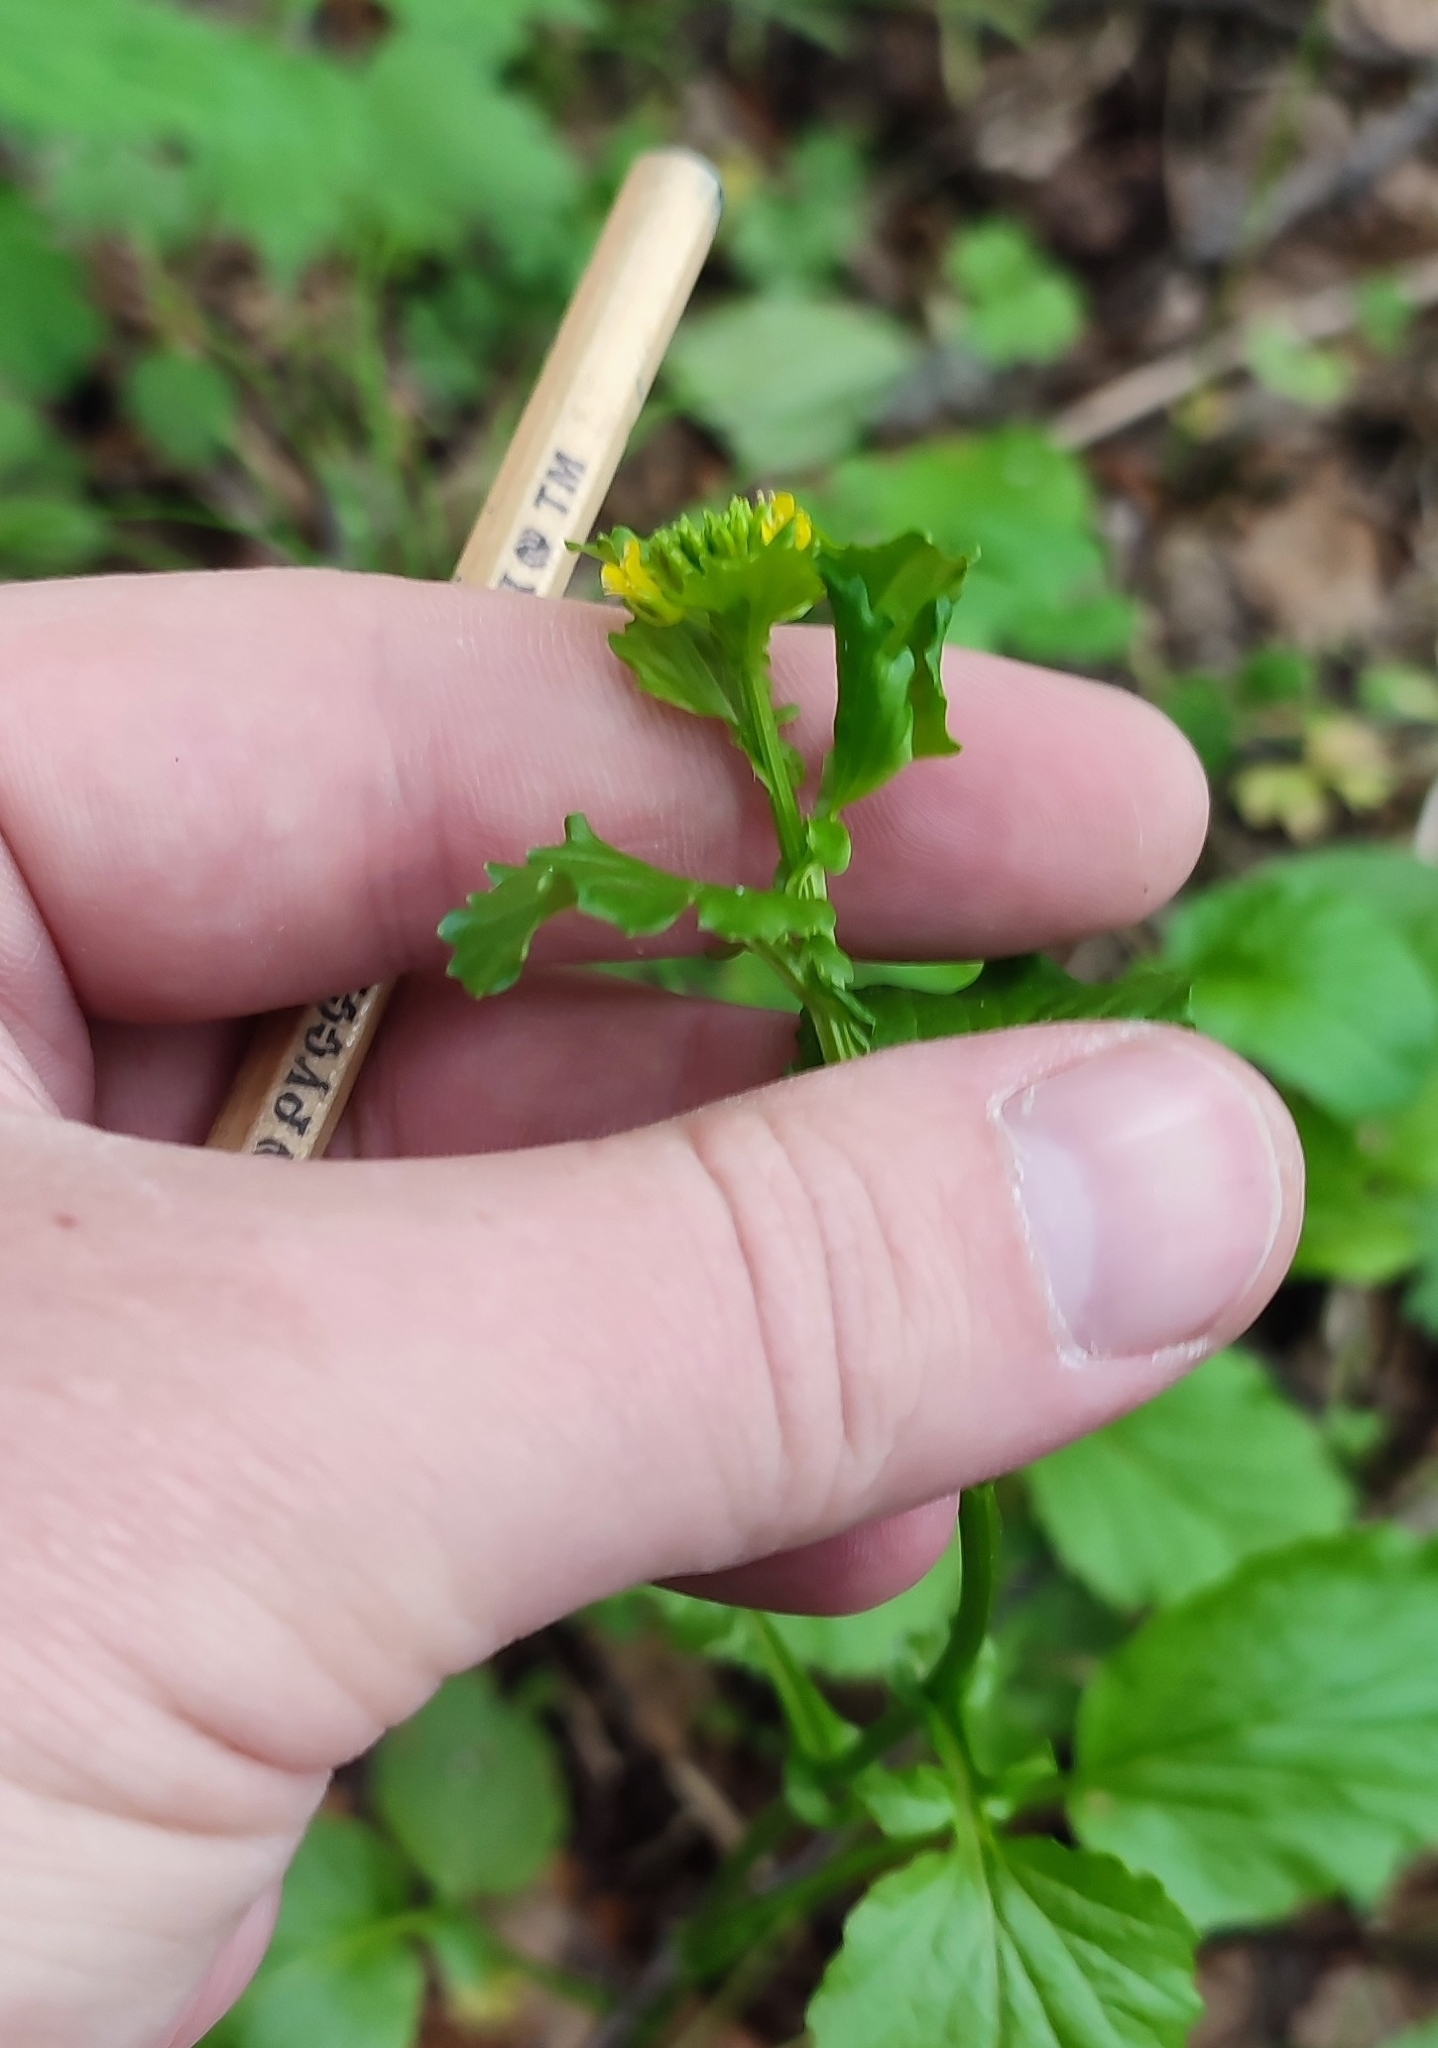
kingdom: Plantae
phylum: Tracheophyta
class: Magnoliopsida
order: Brassicales
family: Brassicaceae
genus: Barbarea
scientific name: Barbarea vulgaris
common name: Cressy-greens
